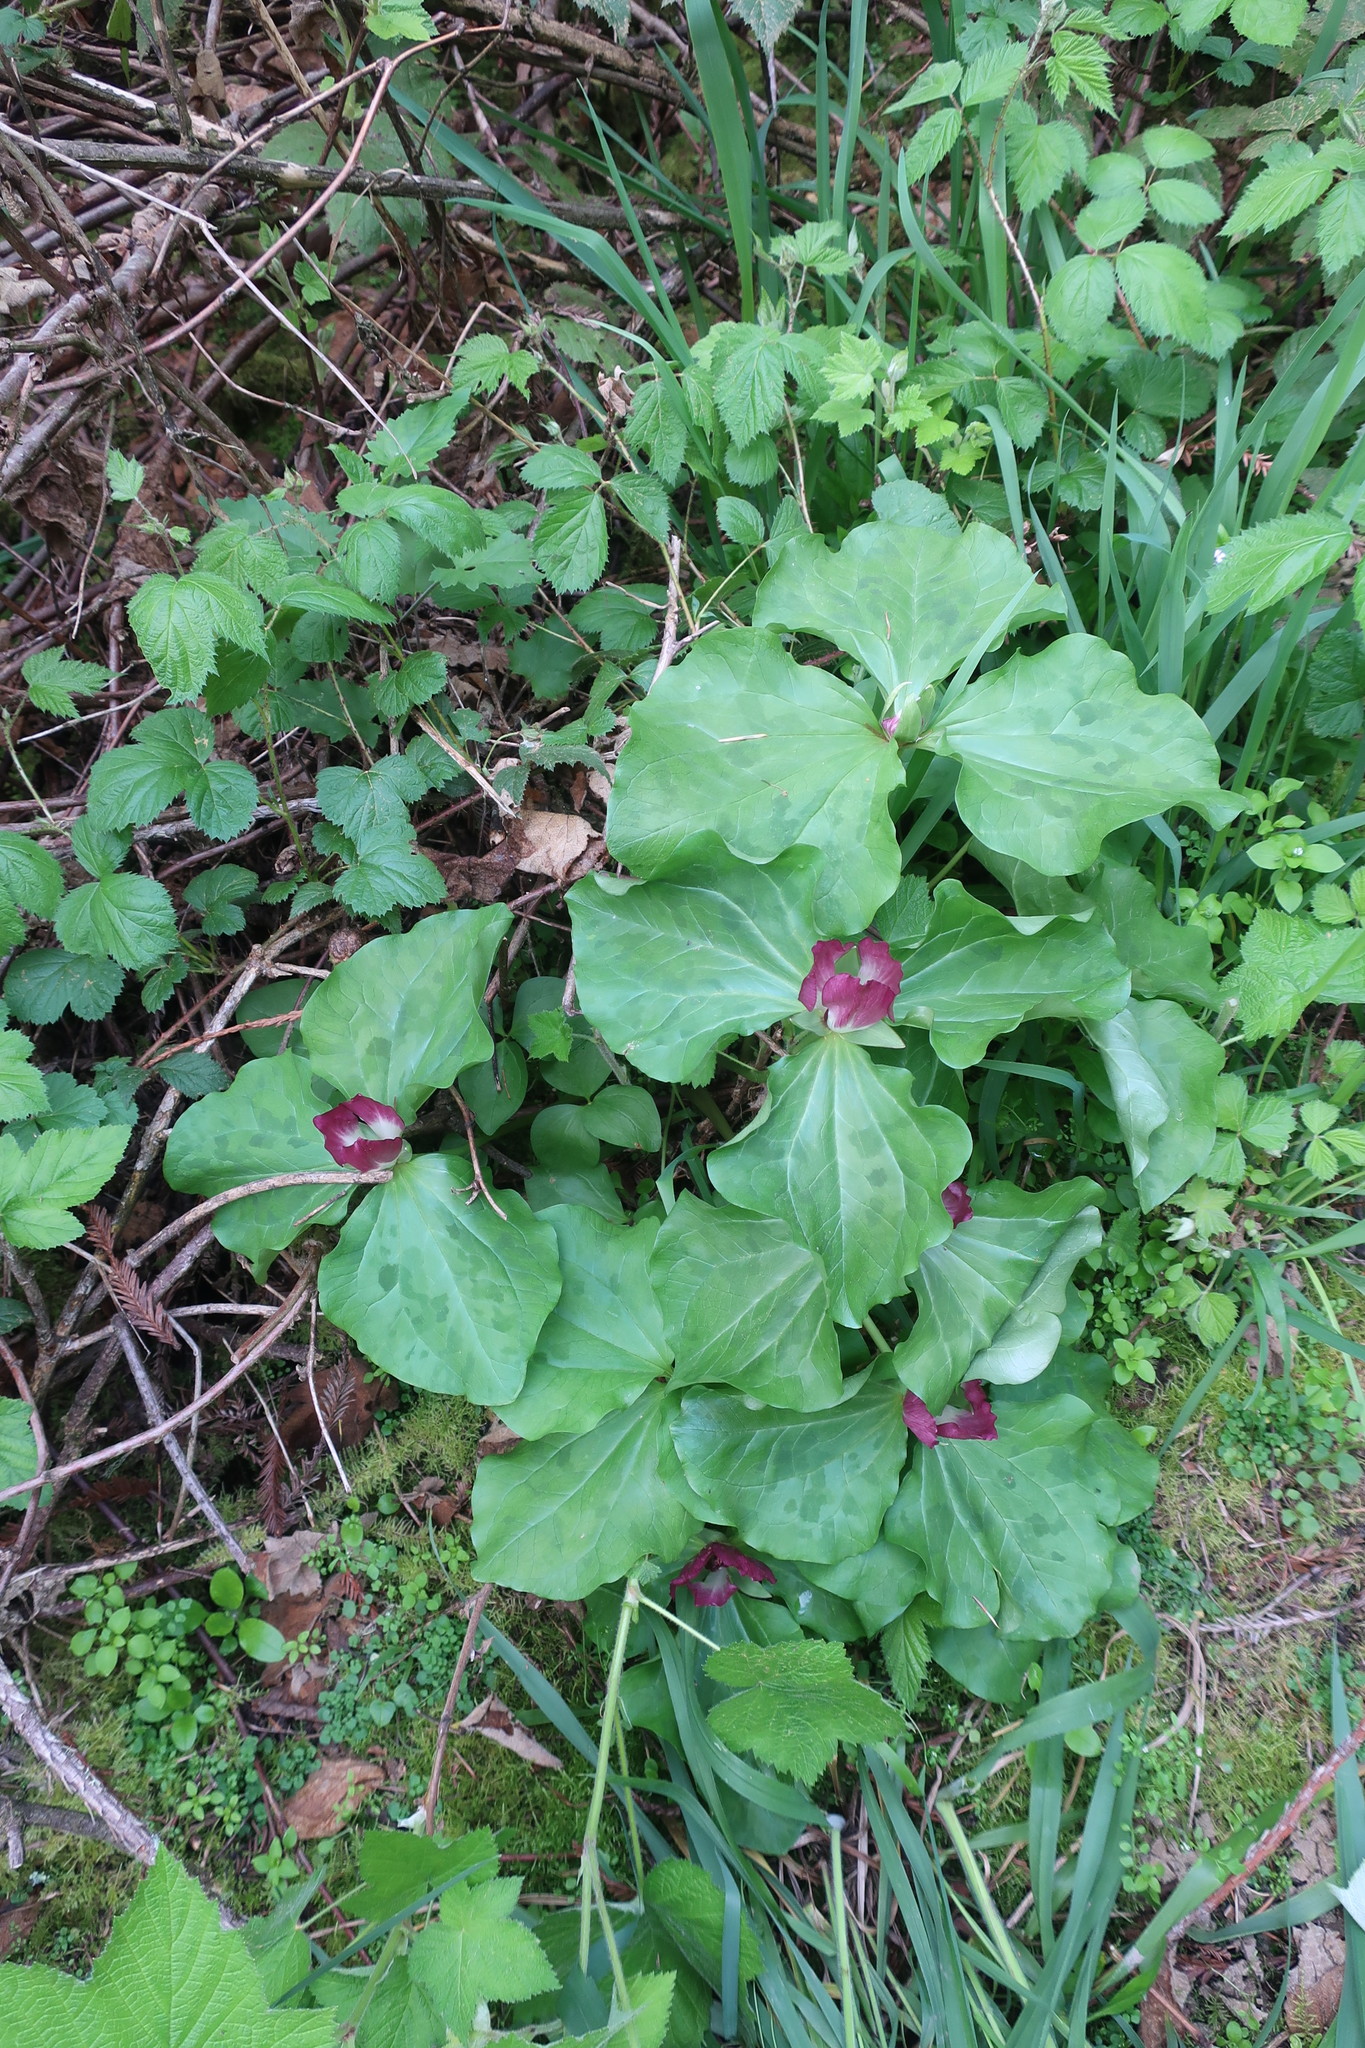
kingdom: Plantae
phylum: Tracheophyta
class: Liliopsida
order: Liliales
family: Melanthiaceae
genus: Trillium
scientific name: Trillium chloropetalum
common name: Giant trillium
